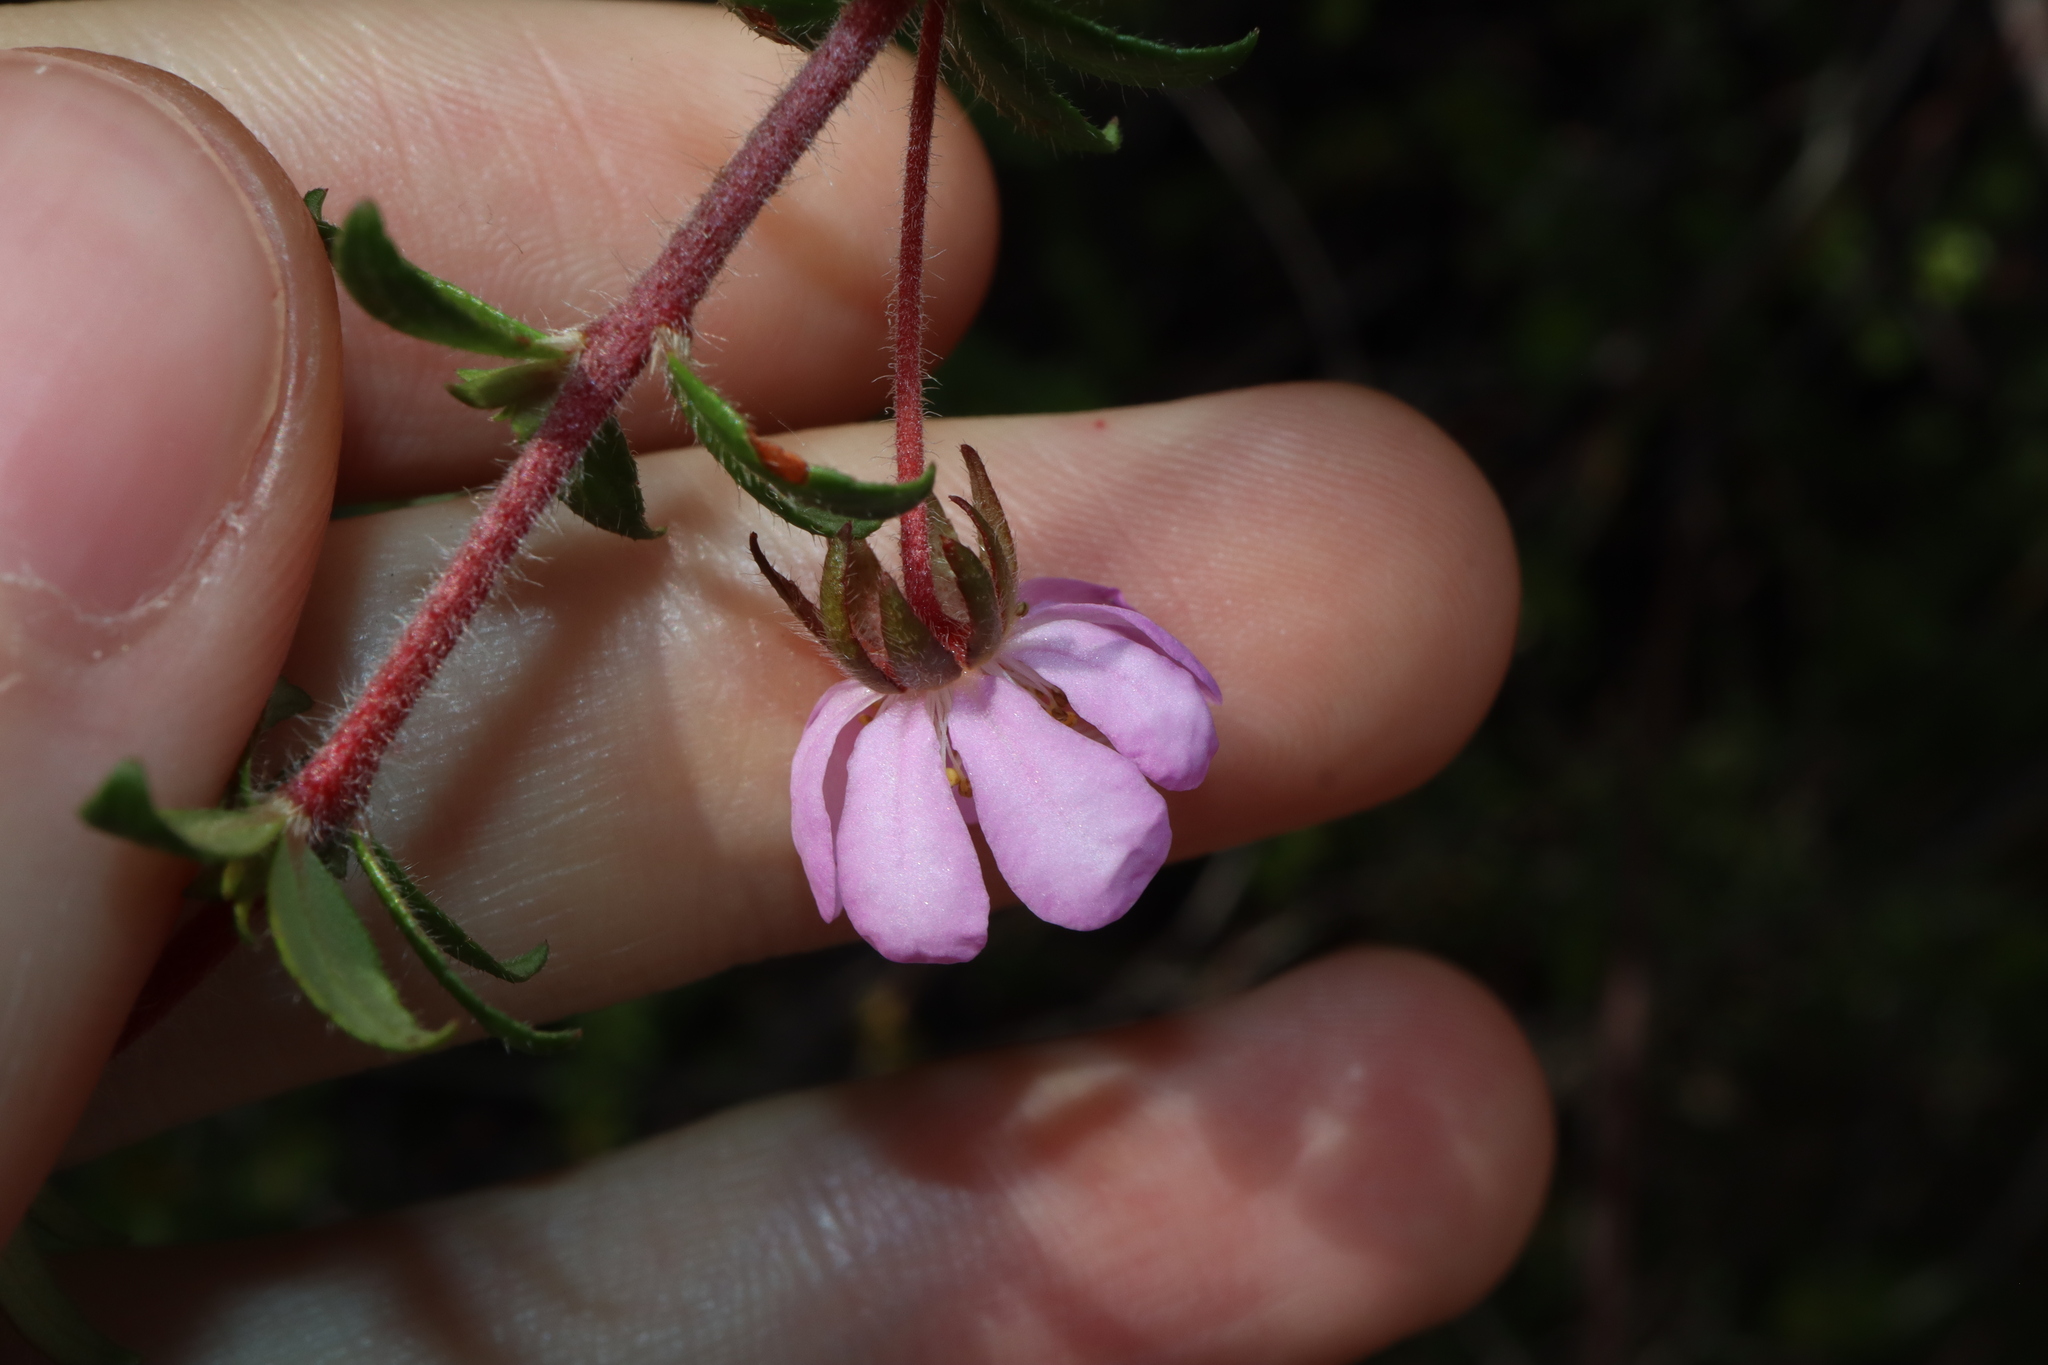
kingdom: Plantae
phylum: Tracheophyta
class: Magnoliopsida
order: Oxalidales
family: Cunoniaceae
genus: Bauera
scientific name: Bauera rubioides
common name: River-rose
